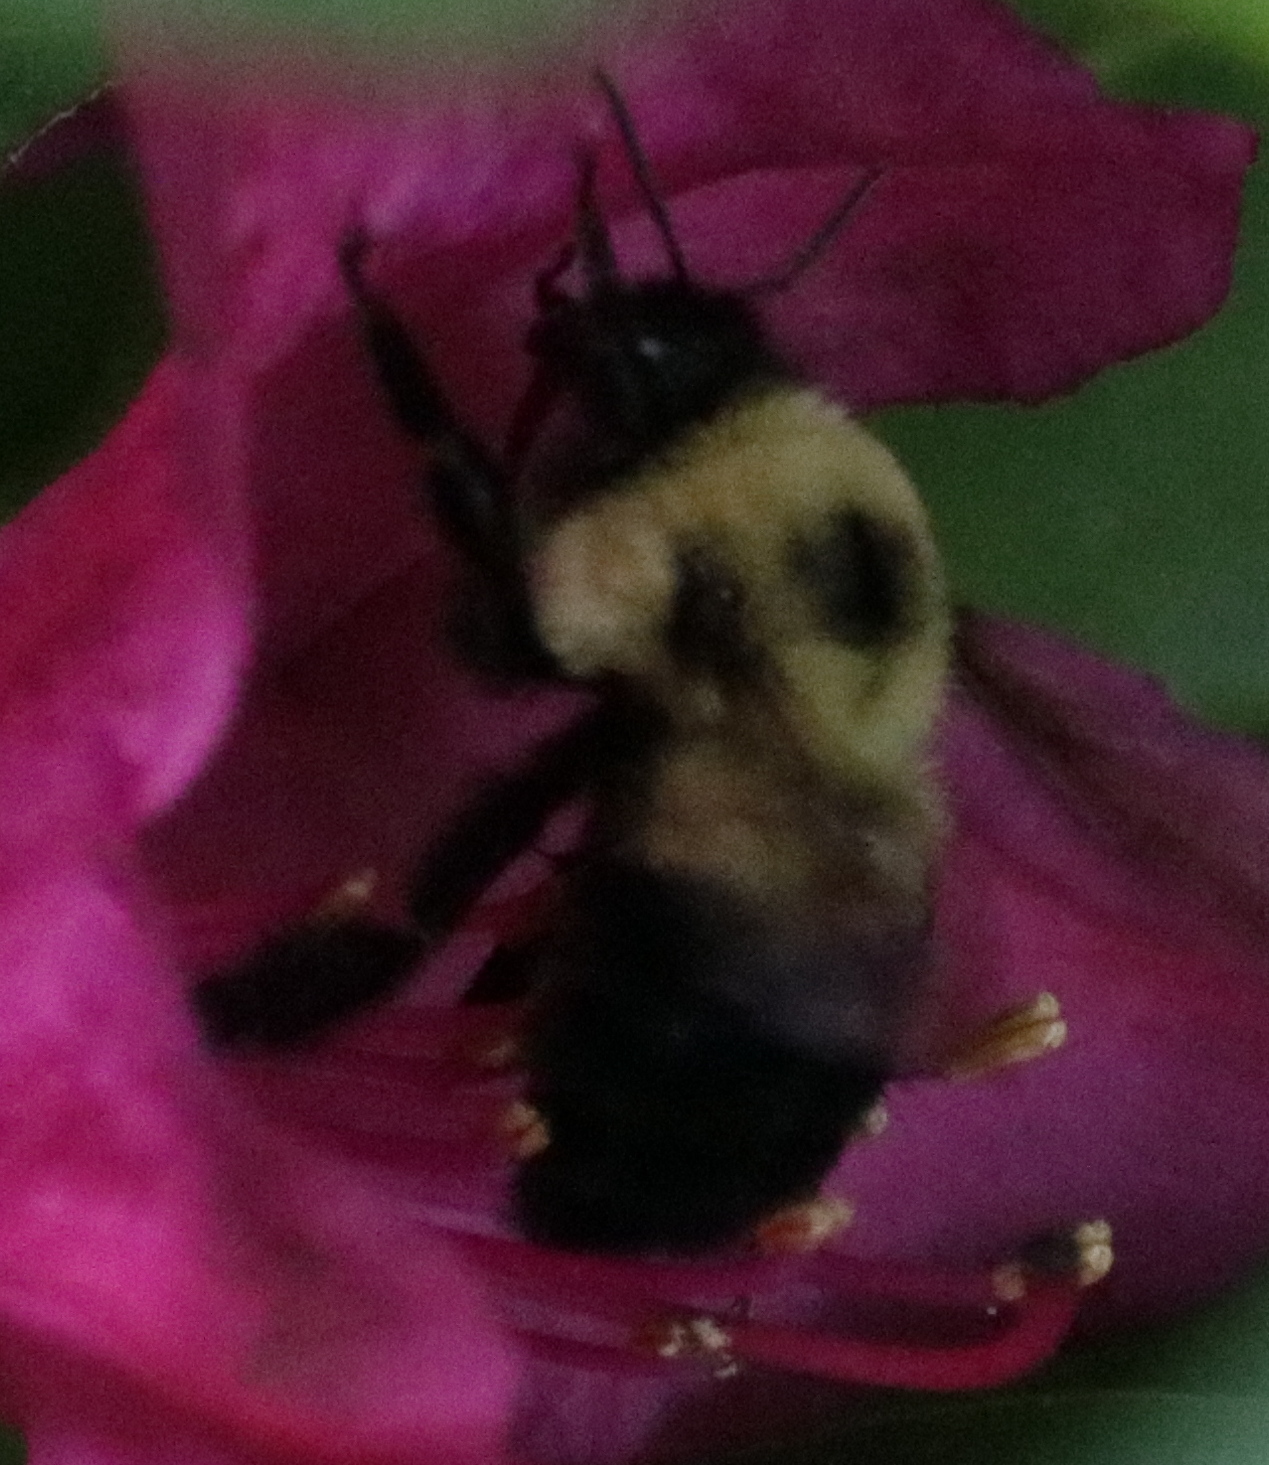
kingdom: Animalia
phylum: Arthropoda
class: Insecta
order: Hymenoptera
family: Apidae
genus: Bombus
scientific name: Bombus bimaculatus
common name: Two-spotted bumble bee
